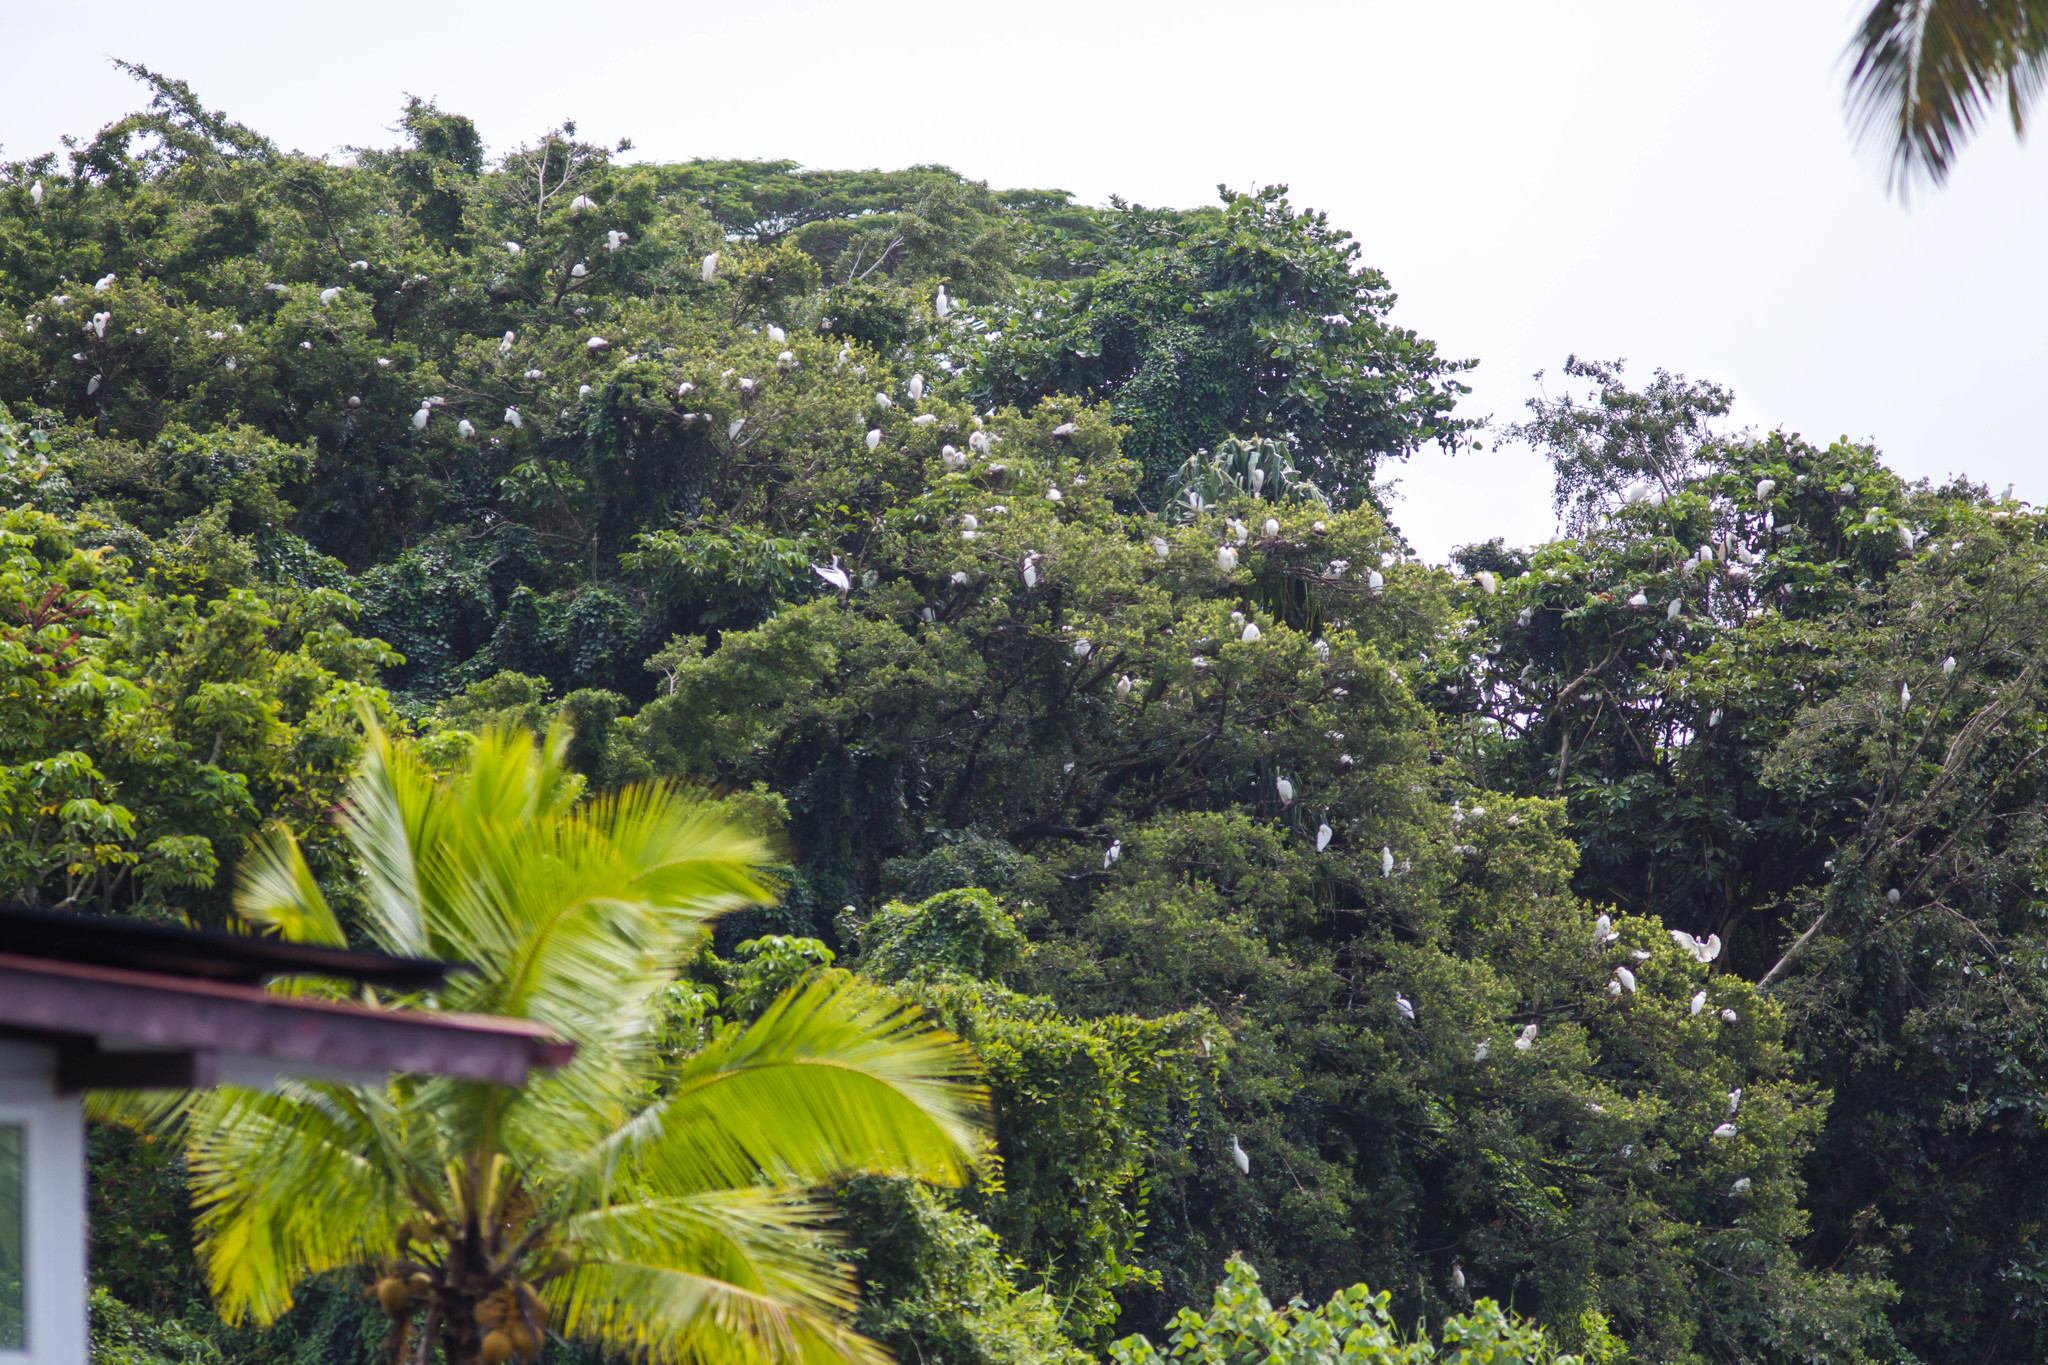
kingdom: Animalia
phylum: Chordata
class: Aves
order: Pelecaniformes
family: Ardeidae
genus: Bubulcus
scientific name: Bubulcus ibis
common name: Cattle egret
